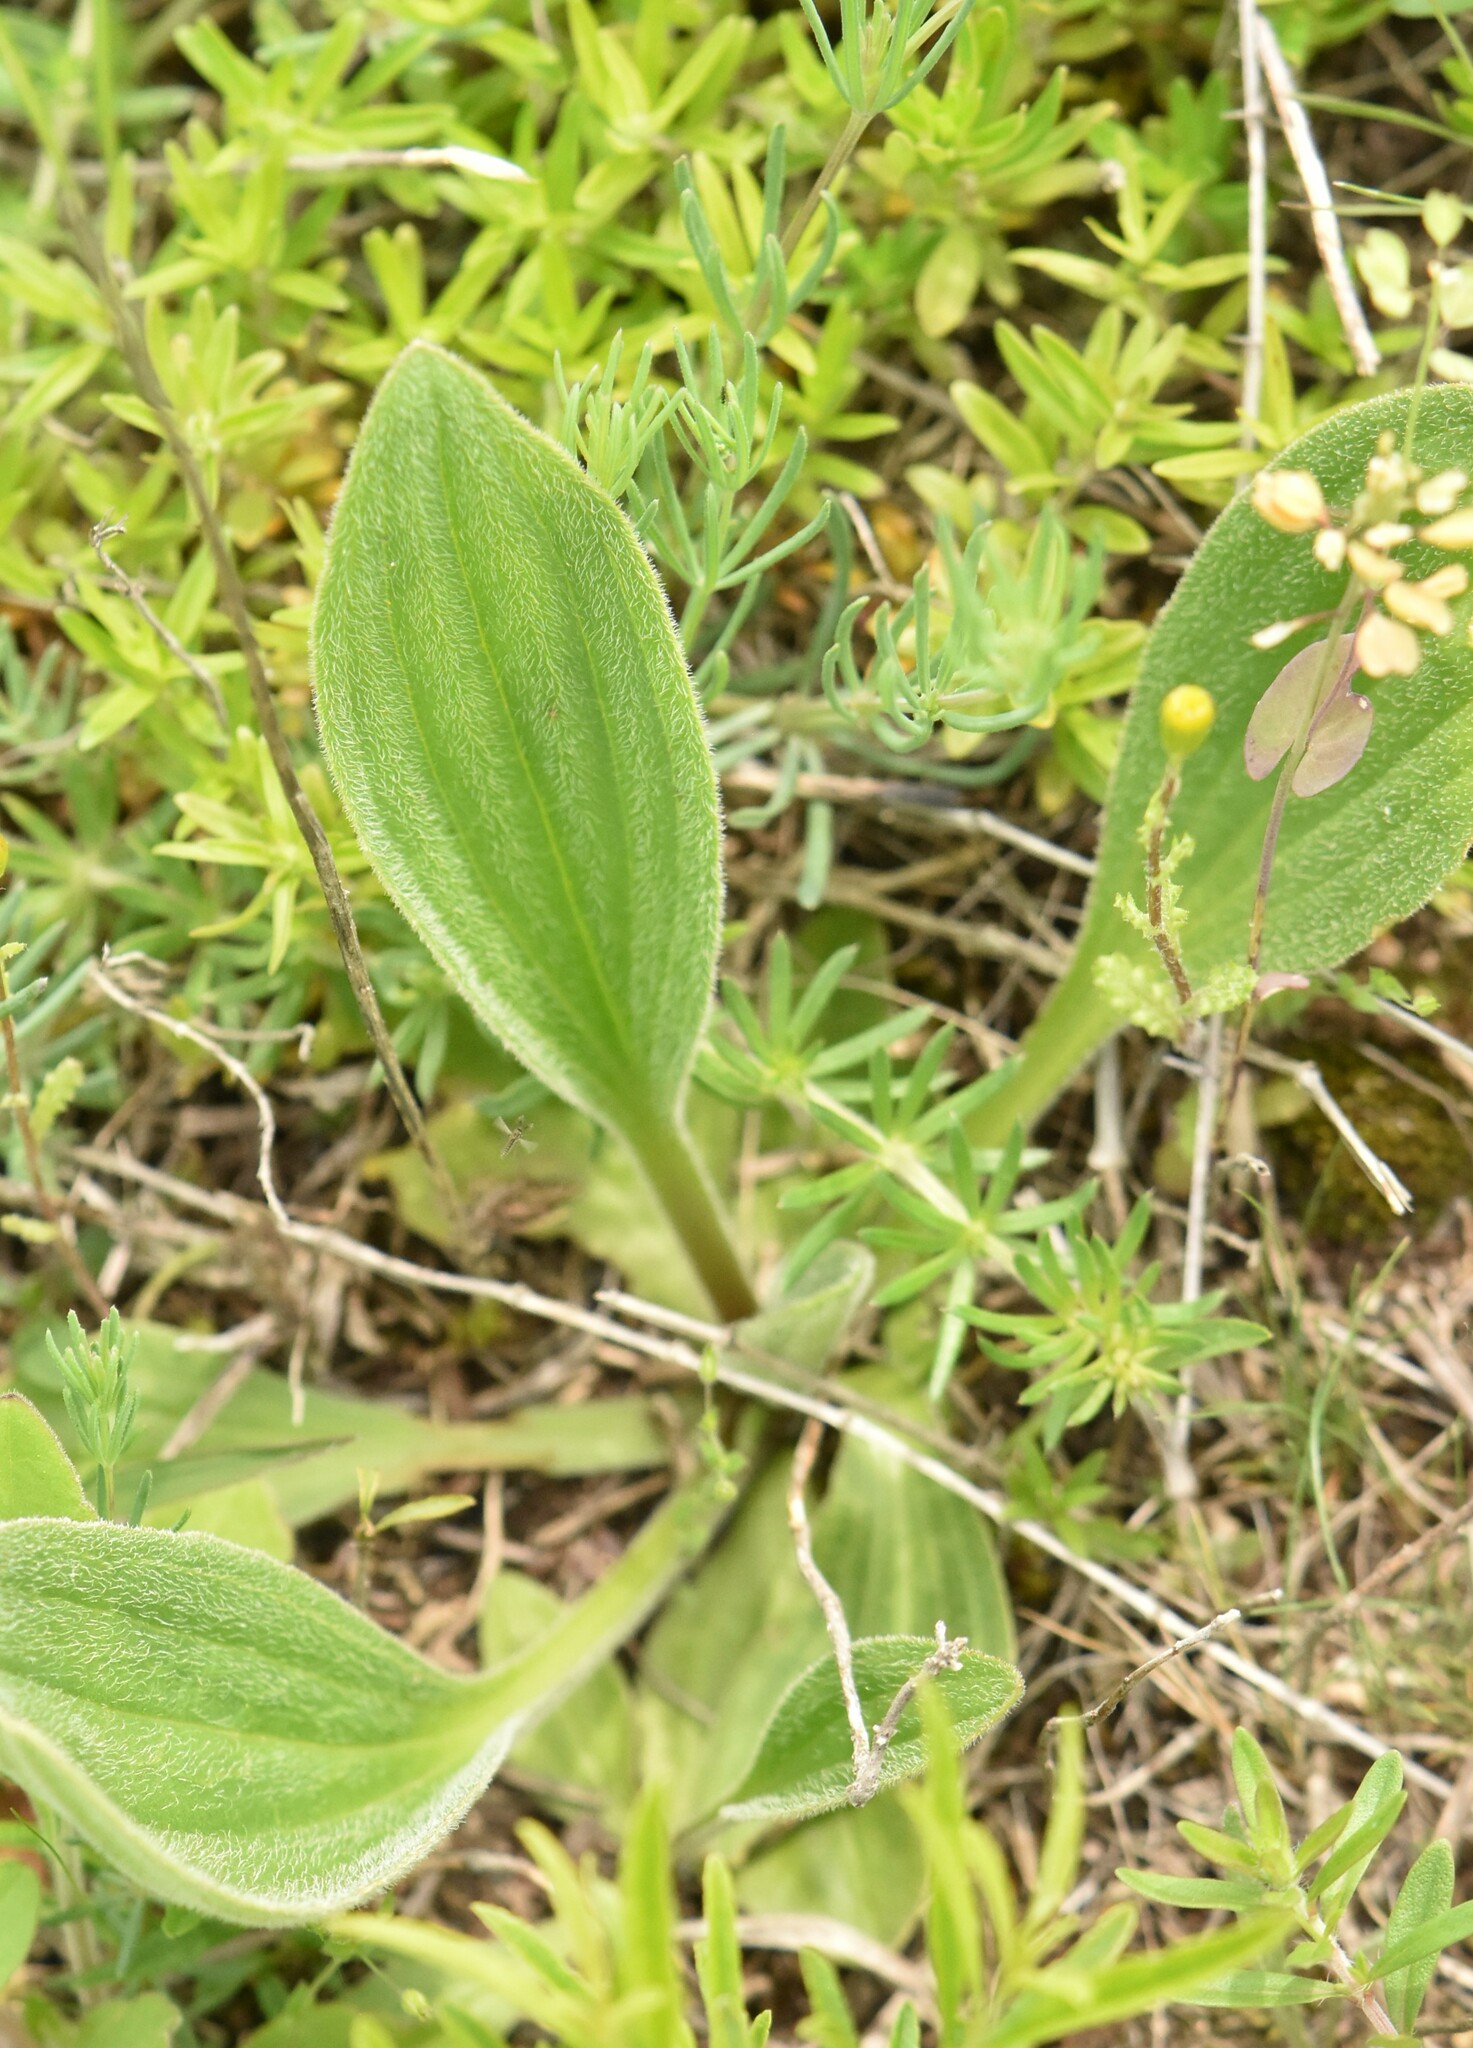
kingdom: Plantae
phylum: Tracheophyta
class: Magnoliopsida
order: Lamiales
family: Plantaginaceae
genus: Plantago
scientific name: Plantago urvillei
